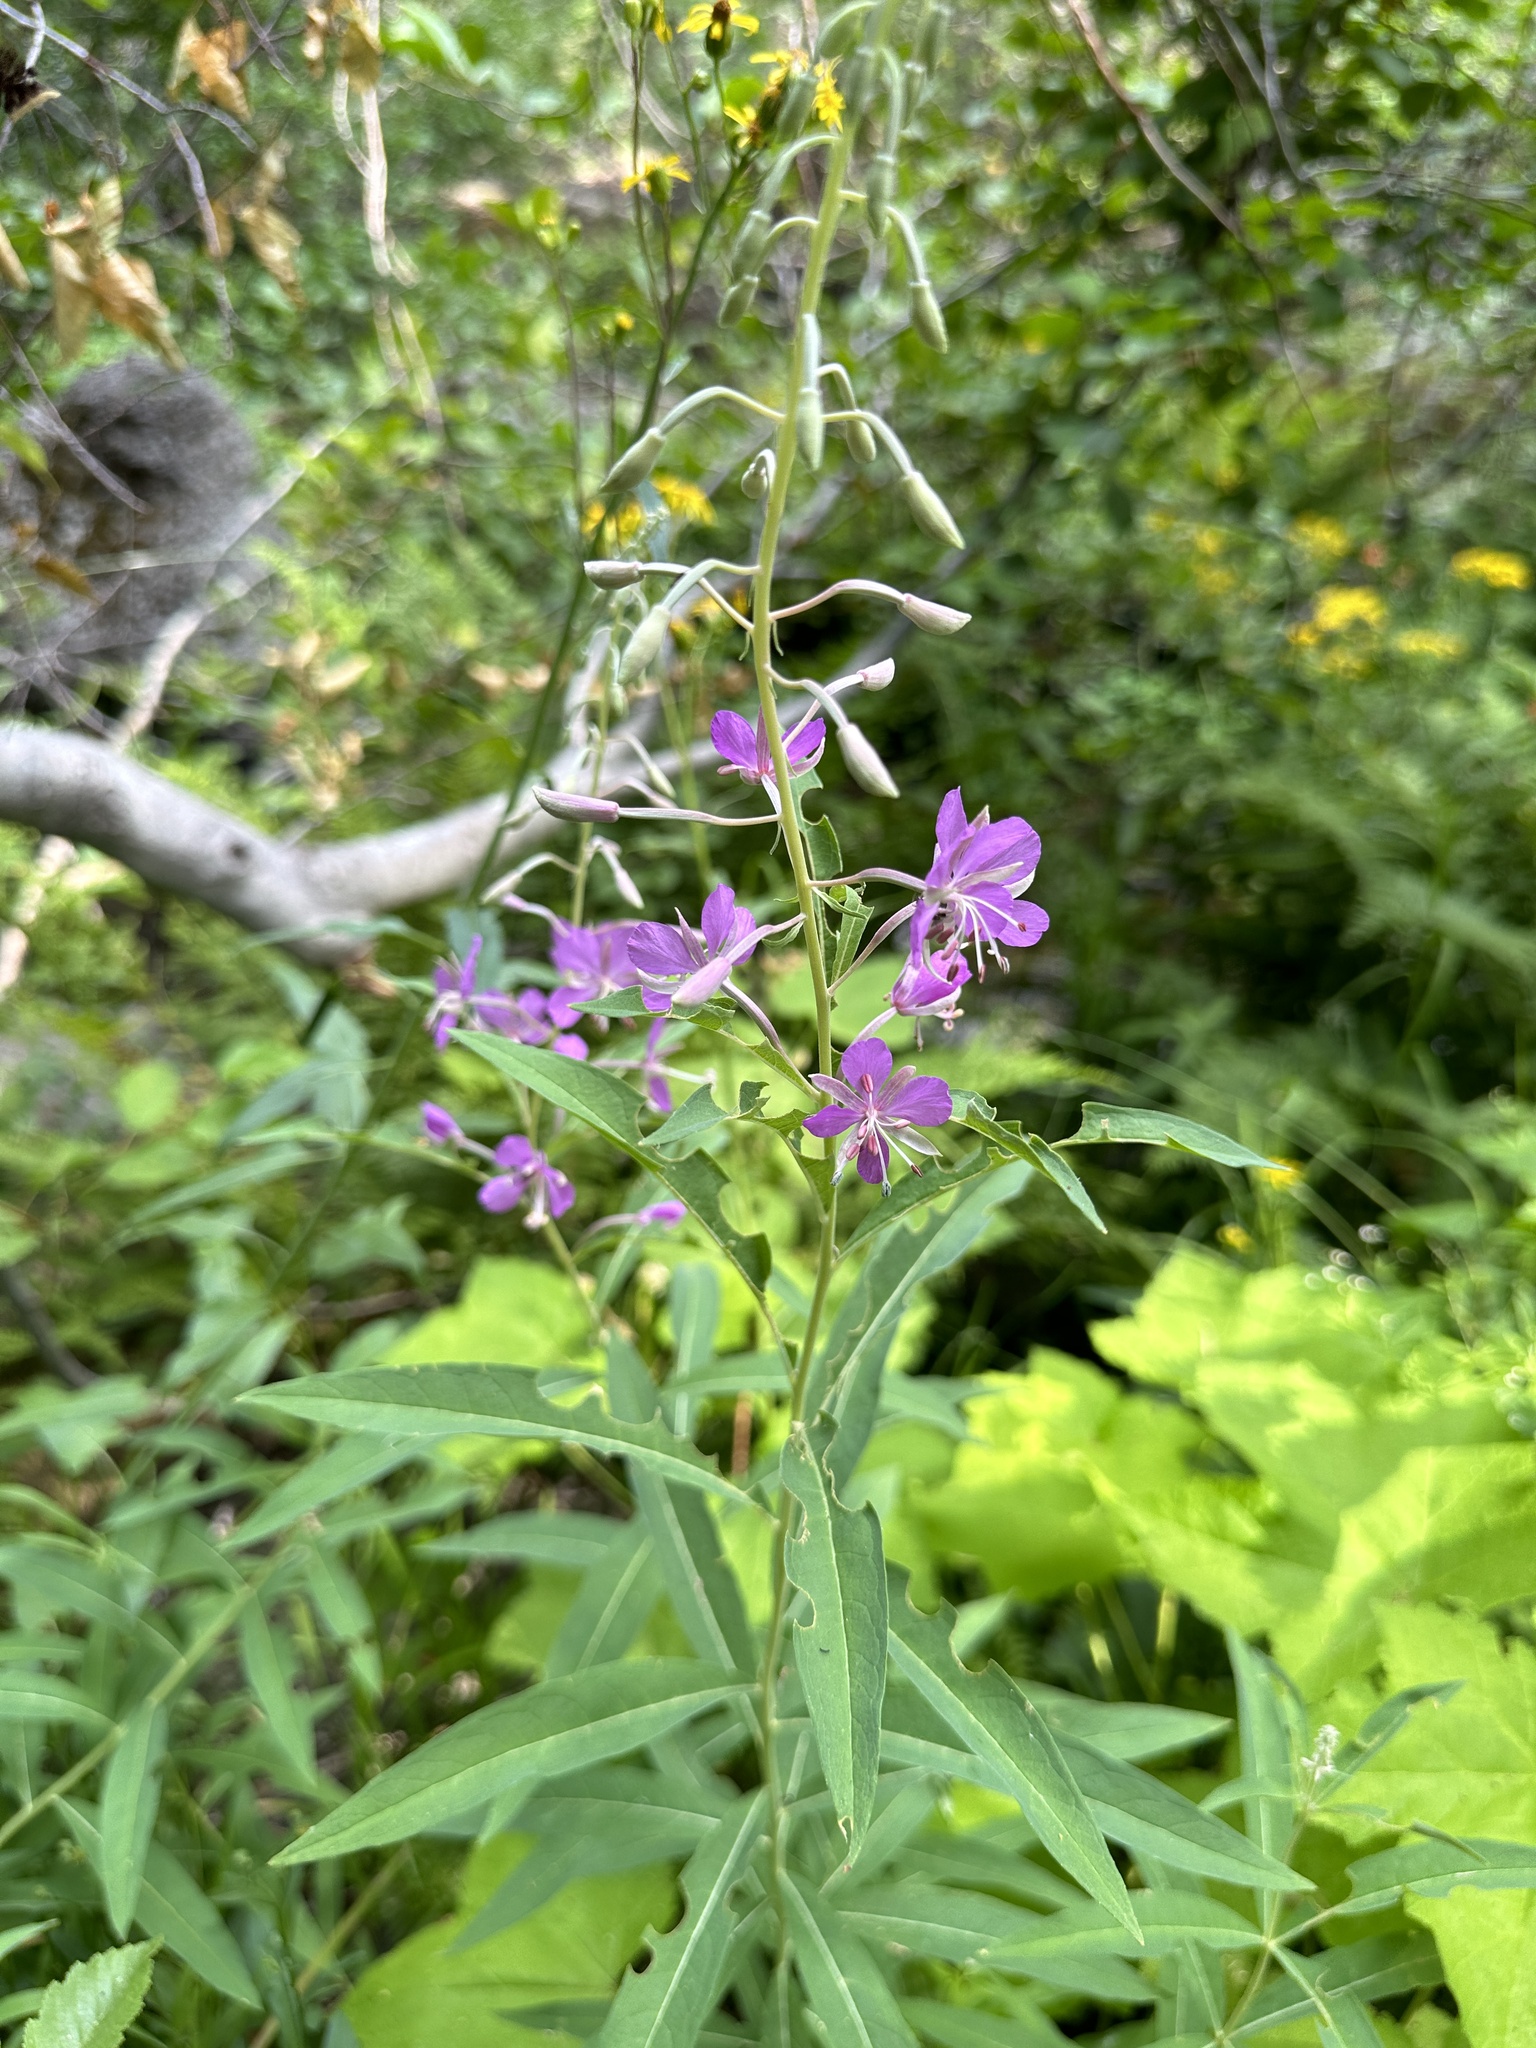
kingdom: Plantae
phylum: Tracheophyta
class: Magnoliopsida
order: Myrtales
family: Onagraceae
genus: Chamaenerion
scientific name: Chamaenerion angustifolium
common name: Fireweed
